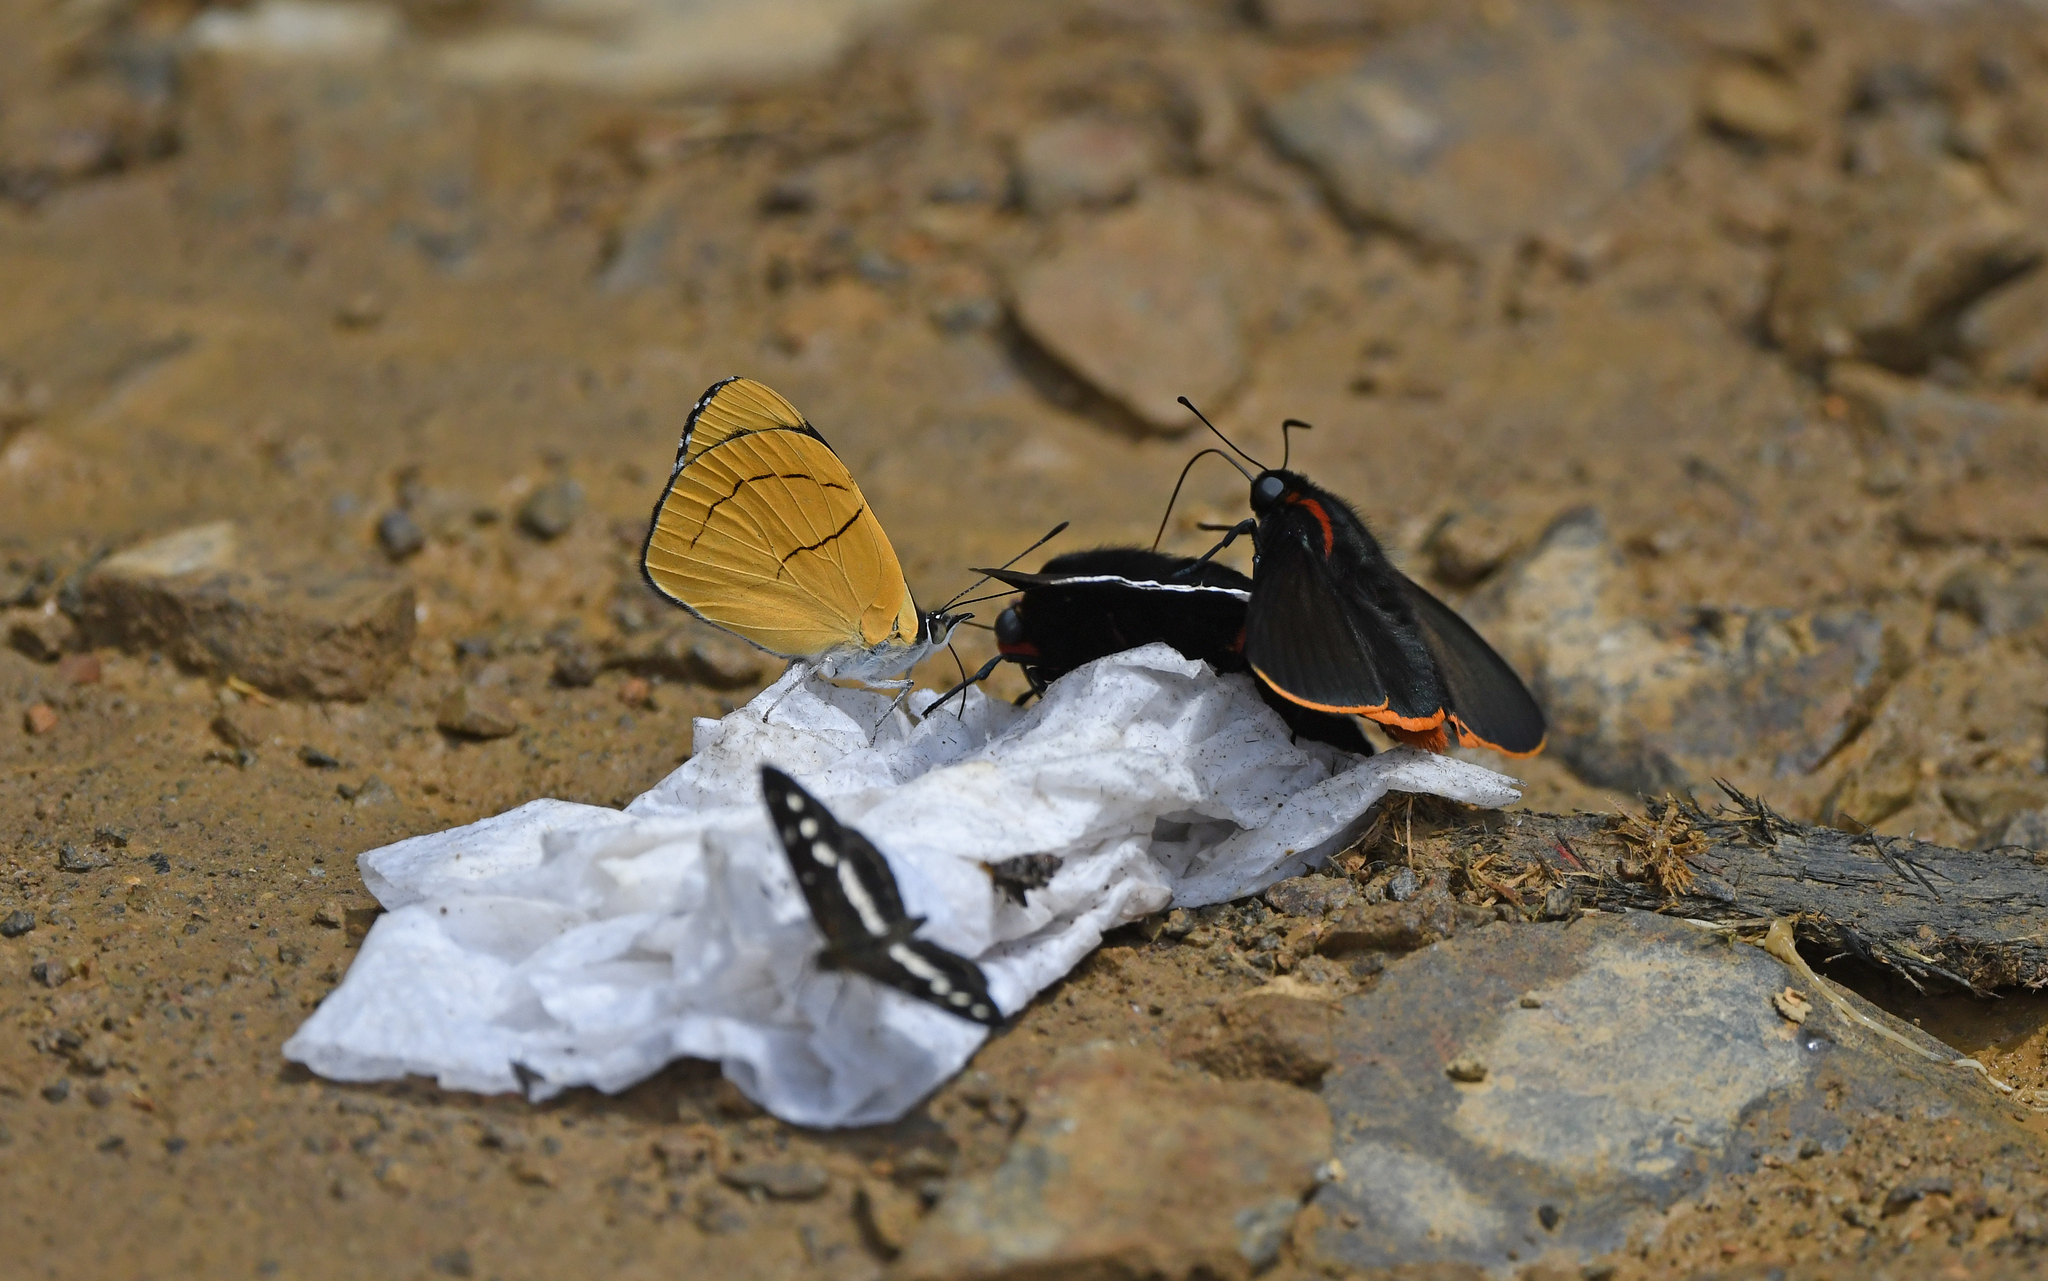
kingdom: Animalia
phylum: Arthropoda
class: Insecta
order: Lepidoptera
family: Nymphalidae
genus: Perisama
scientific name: Perisama comnena
